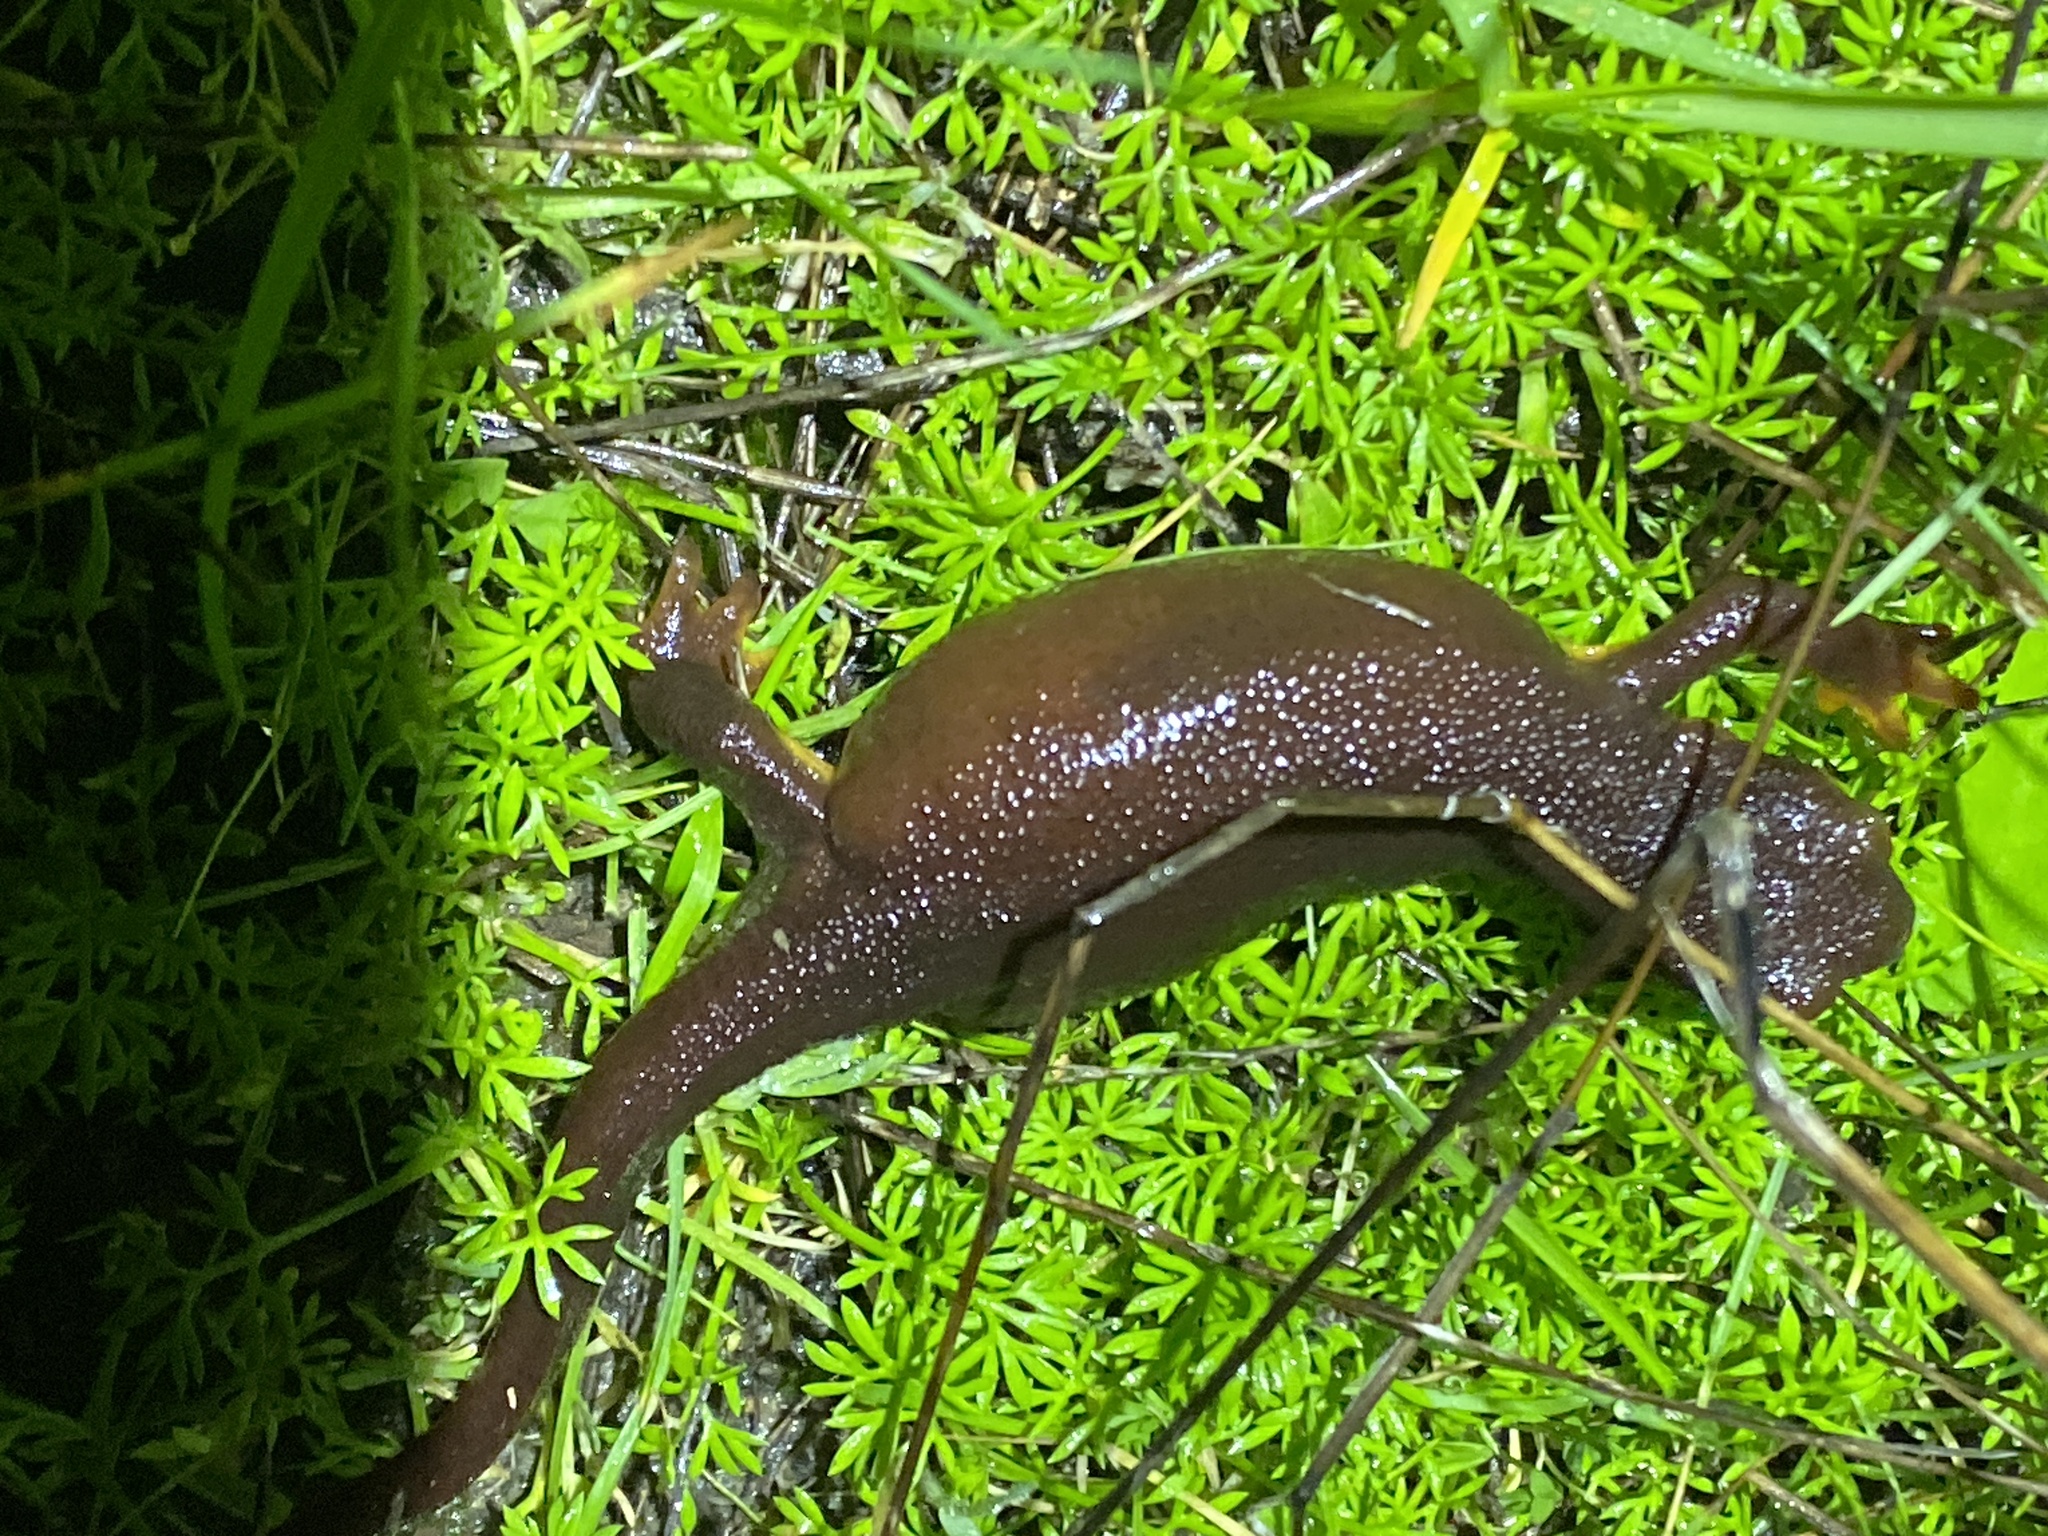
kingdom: Animalia
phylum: Chordata
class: Amphibia
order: Caudata
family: Salamandridae
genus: Taricha
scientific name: Taricha torosa
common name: California newt
